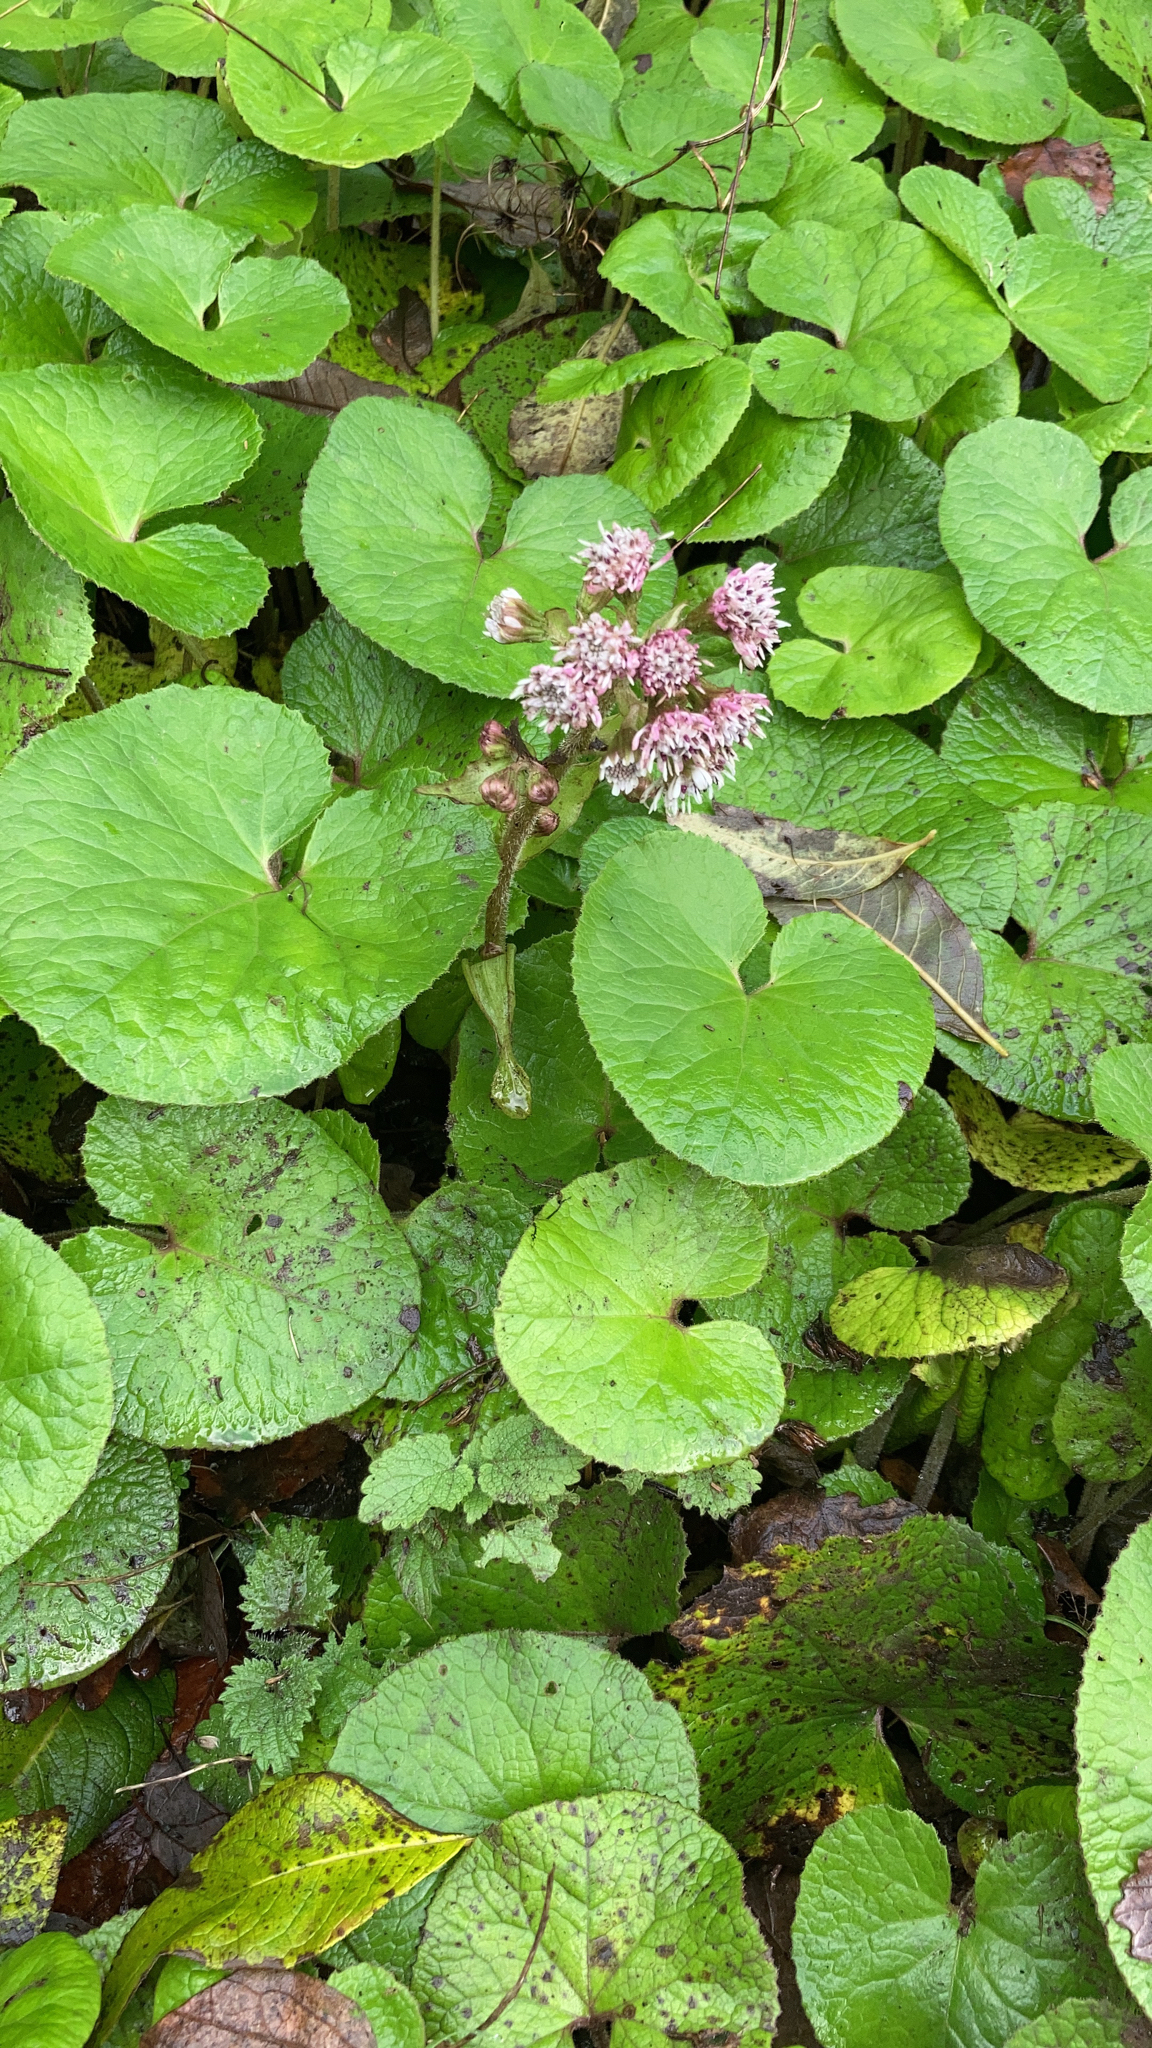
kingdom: Plantae
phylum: Tracheophyta
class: Magnoliopsida
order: Asterales
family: Asteraceae
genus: Petasites
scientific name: Petasites pyrenaicus
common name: Winter heliotrope
